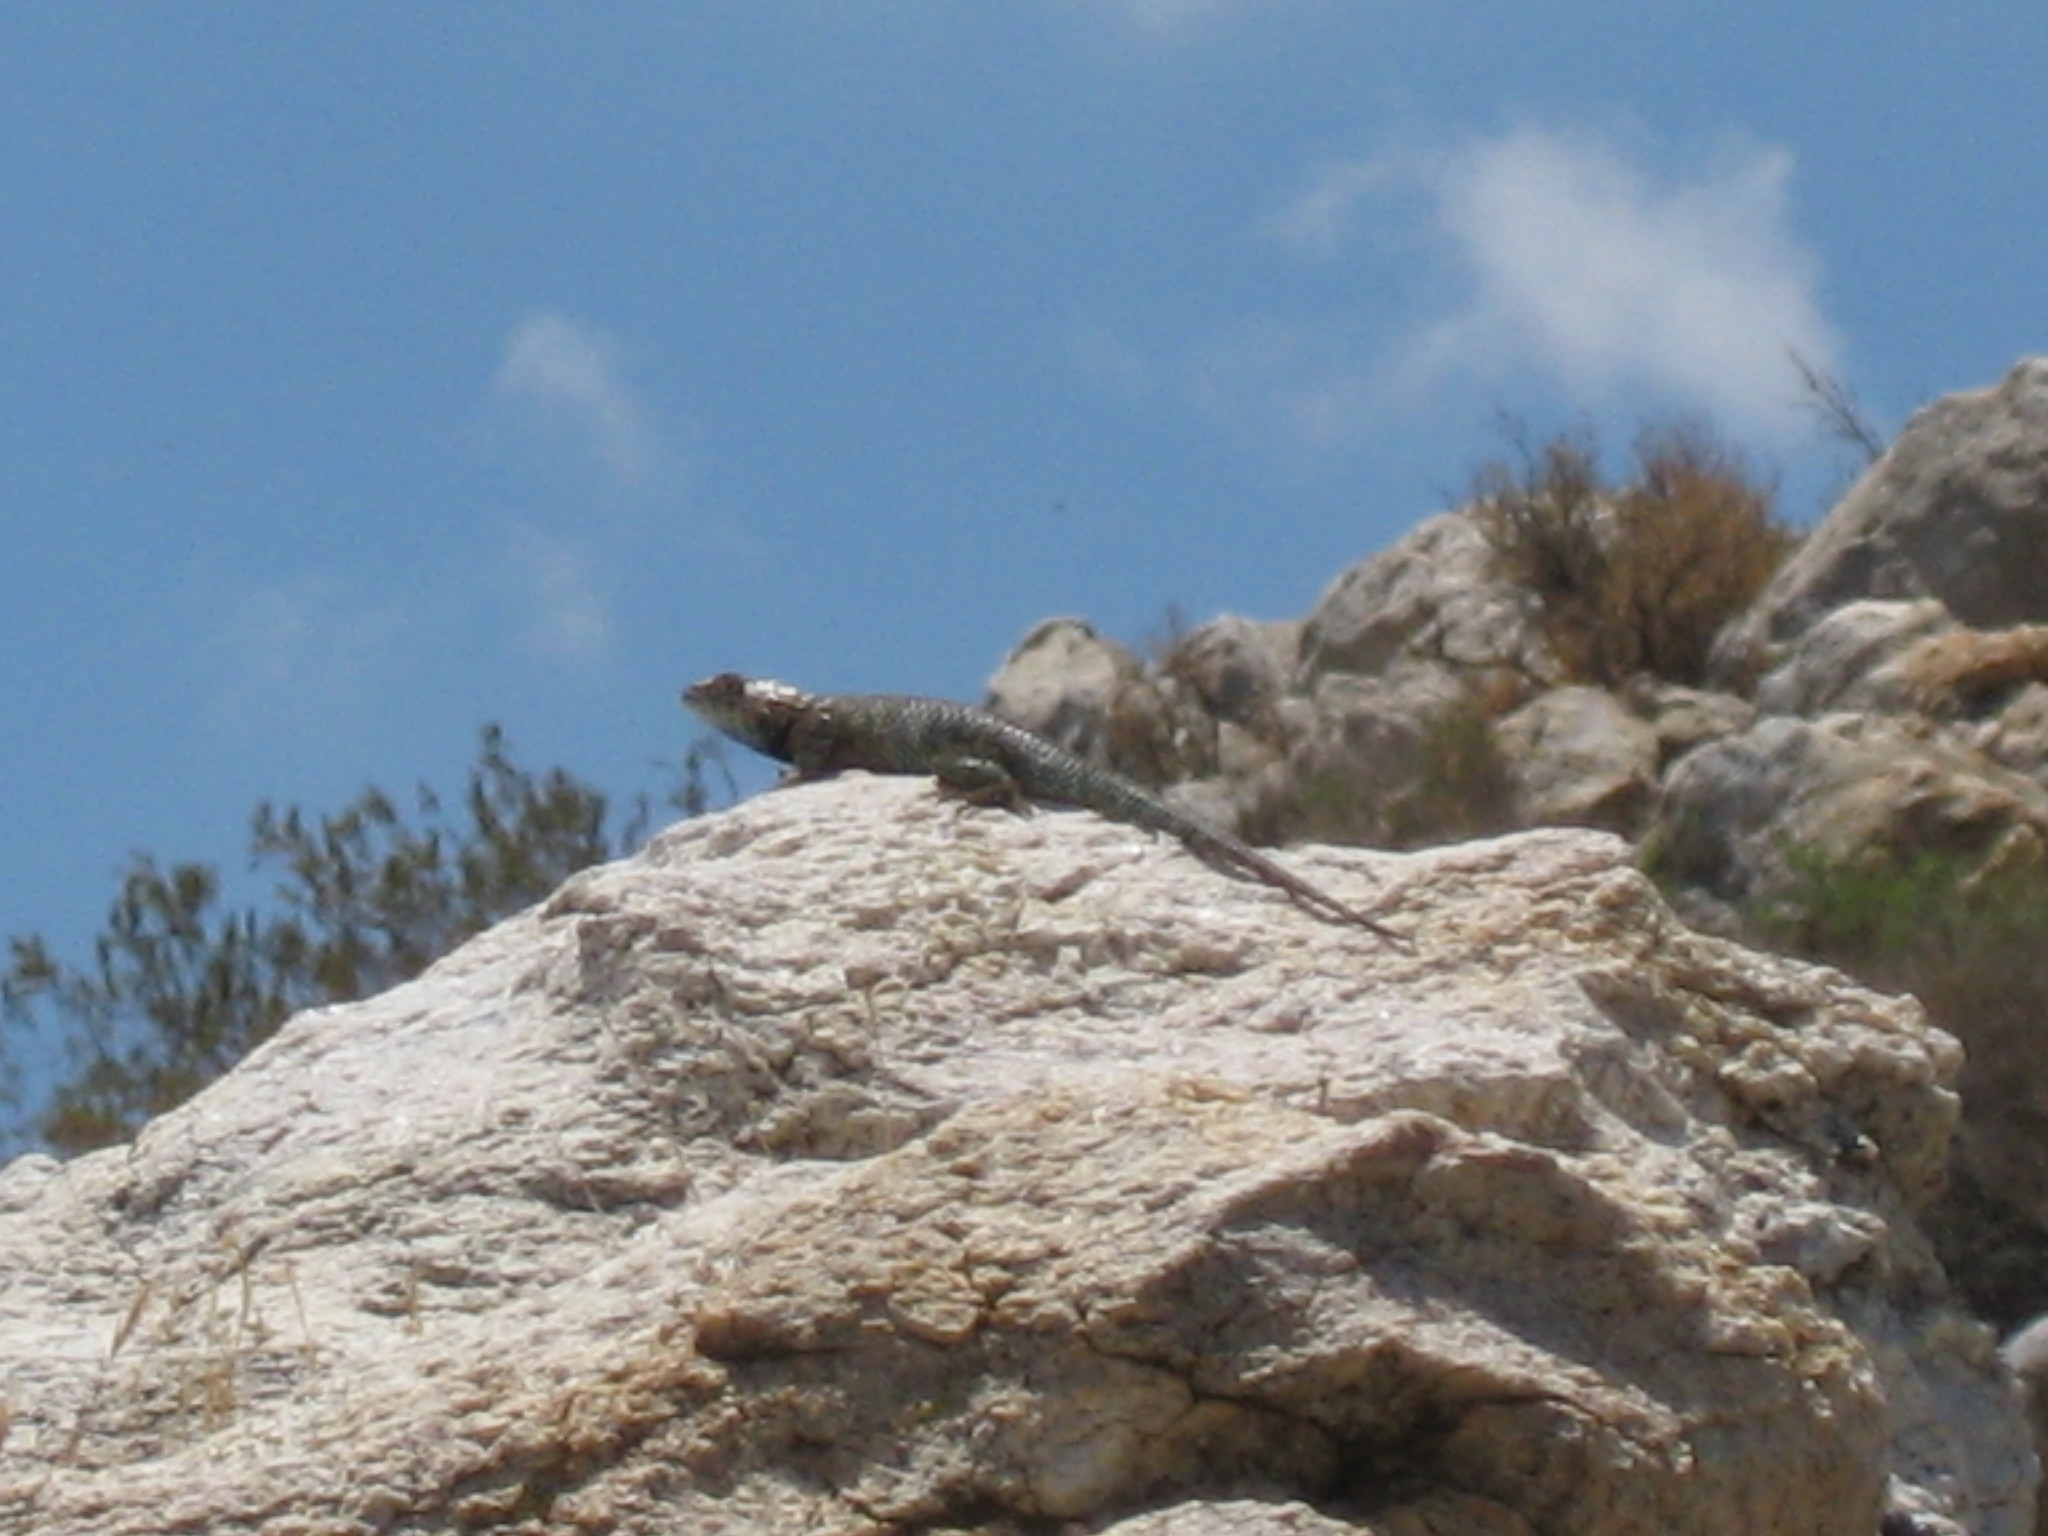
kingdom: Animalia
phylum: Chordata
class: Squamata
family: Phrynosomatidae
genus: Sceloporus
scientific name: Sceloporus orcutti
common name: Granite spiny lizard
